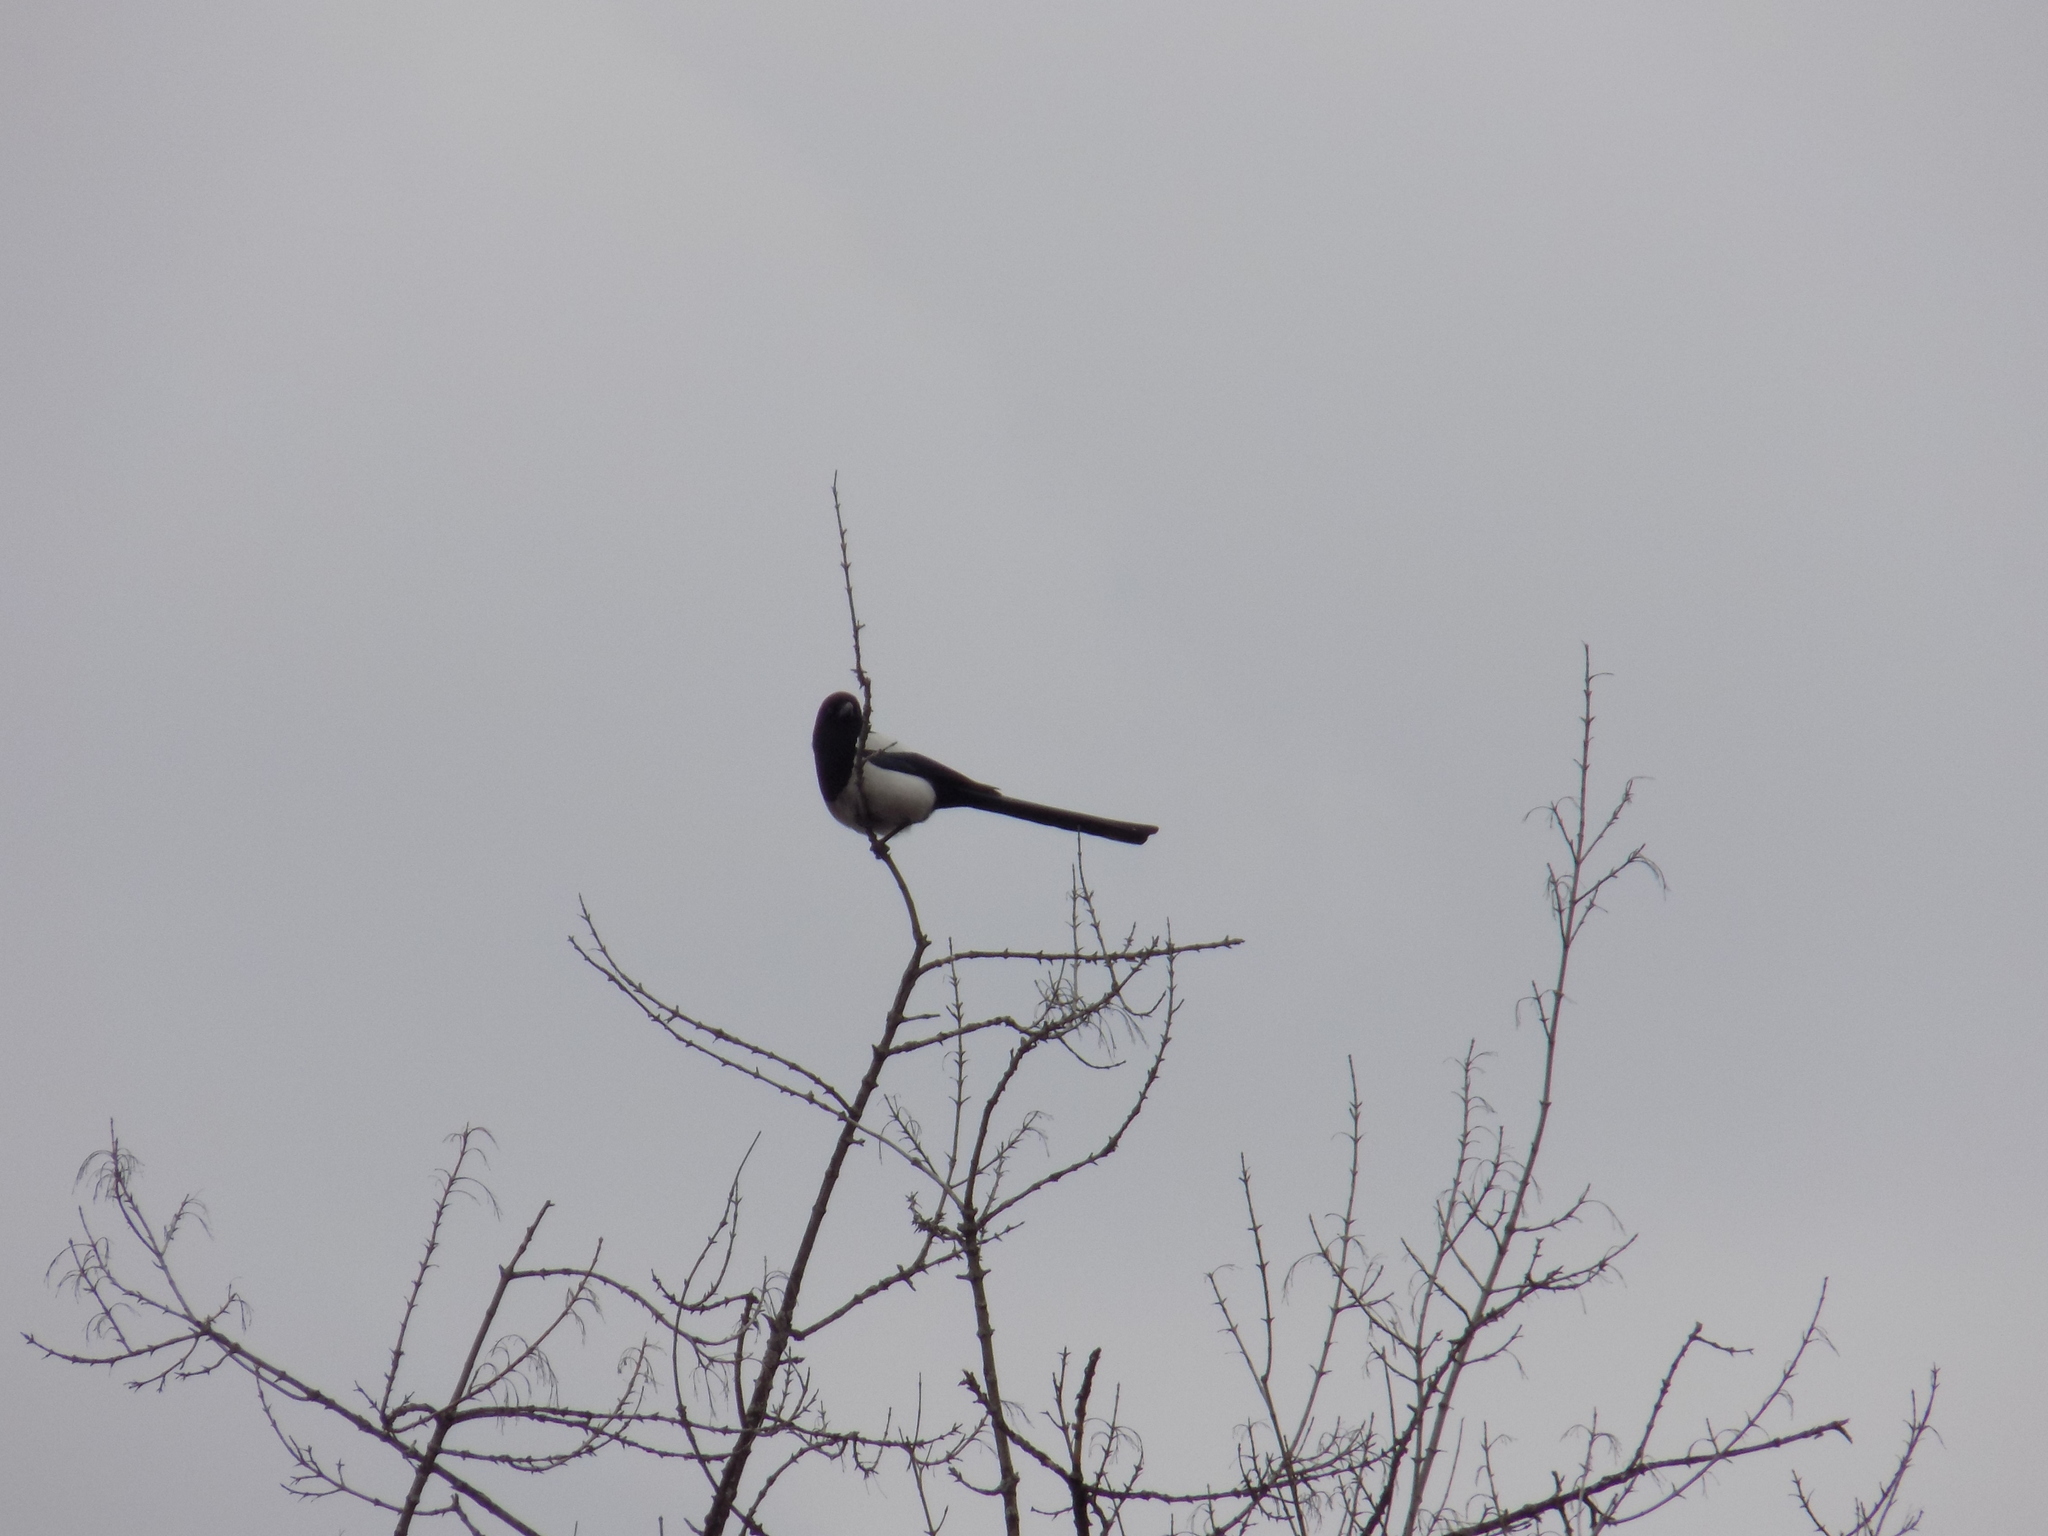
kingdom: Animalia
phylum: Chordata
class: Aves
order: Passeriformes
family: Corvidae
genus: Pica
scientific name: Pica pica
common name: Eurasian magpie
